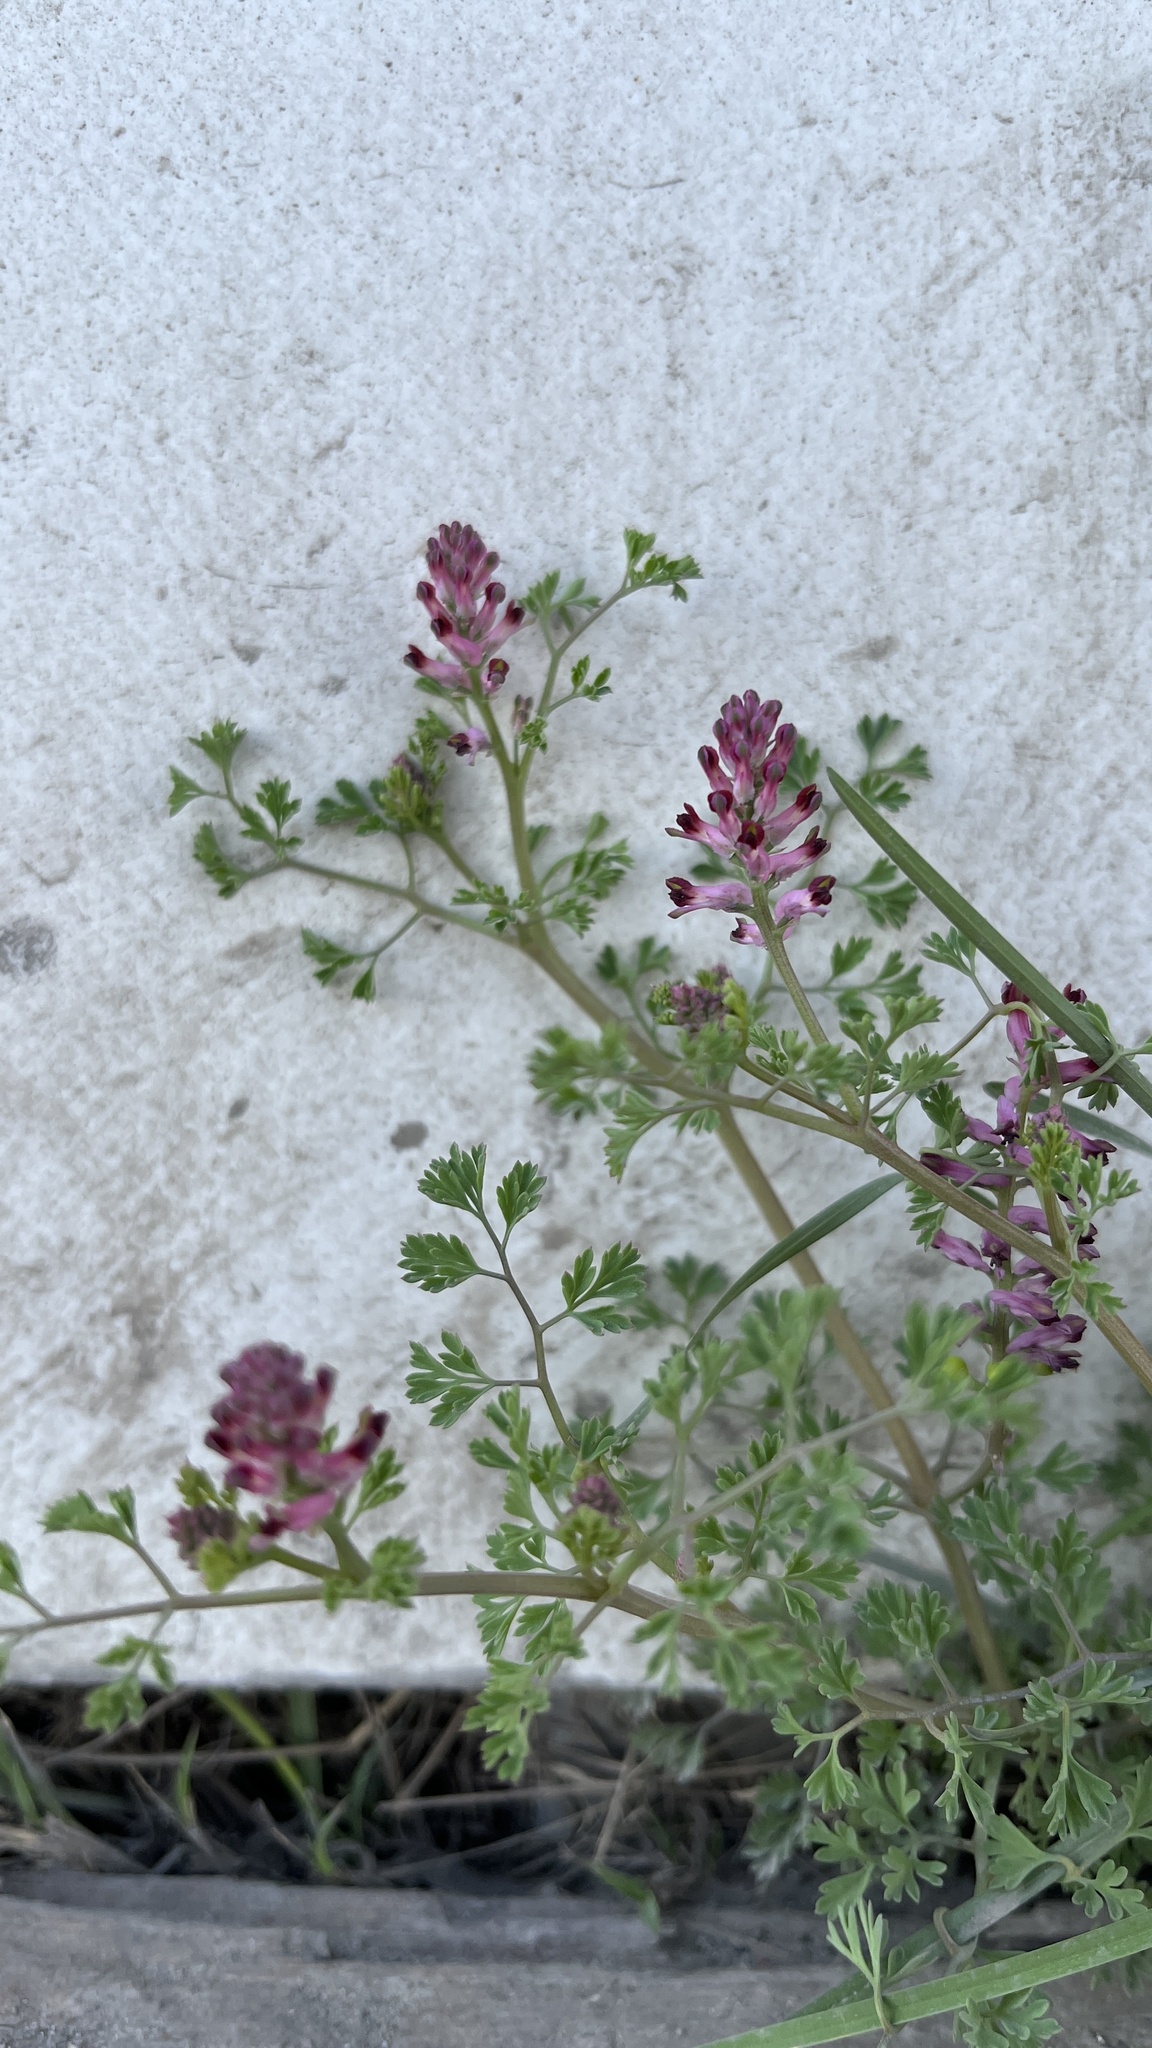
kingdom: Plantae
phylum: Tracheophyta
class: Magnoliopsida
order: Ranunculales
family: Papaveraceae
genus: Fumaria
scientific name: Fumaria officinalis
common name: Common fumitory
